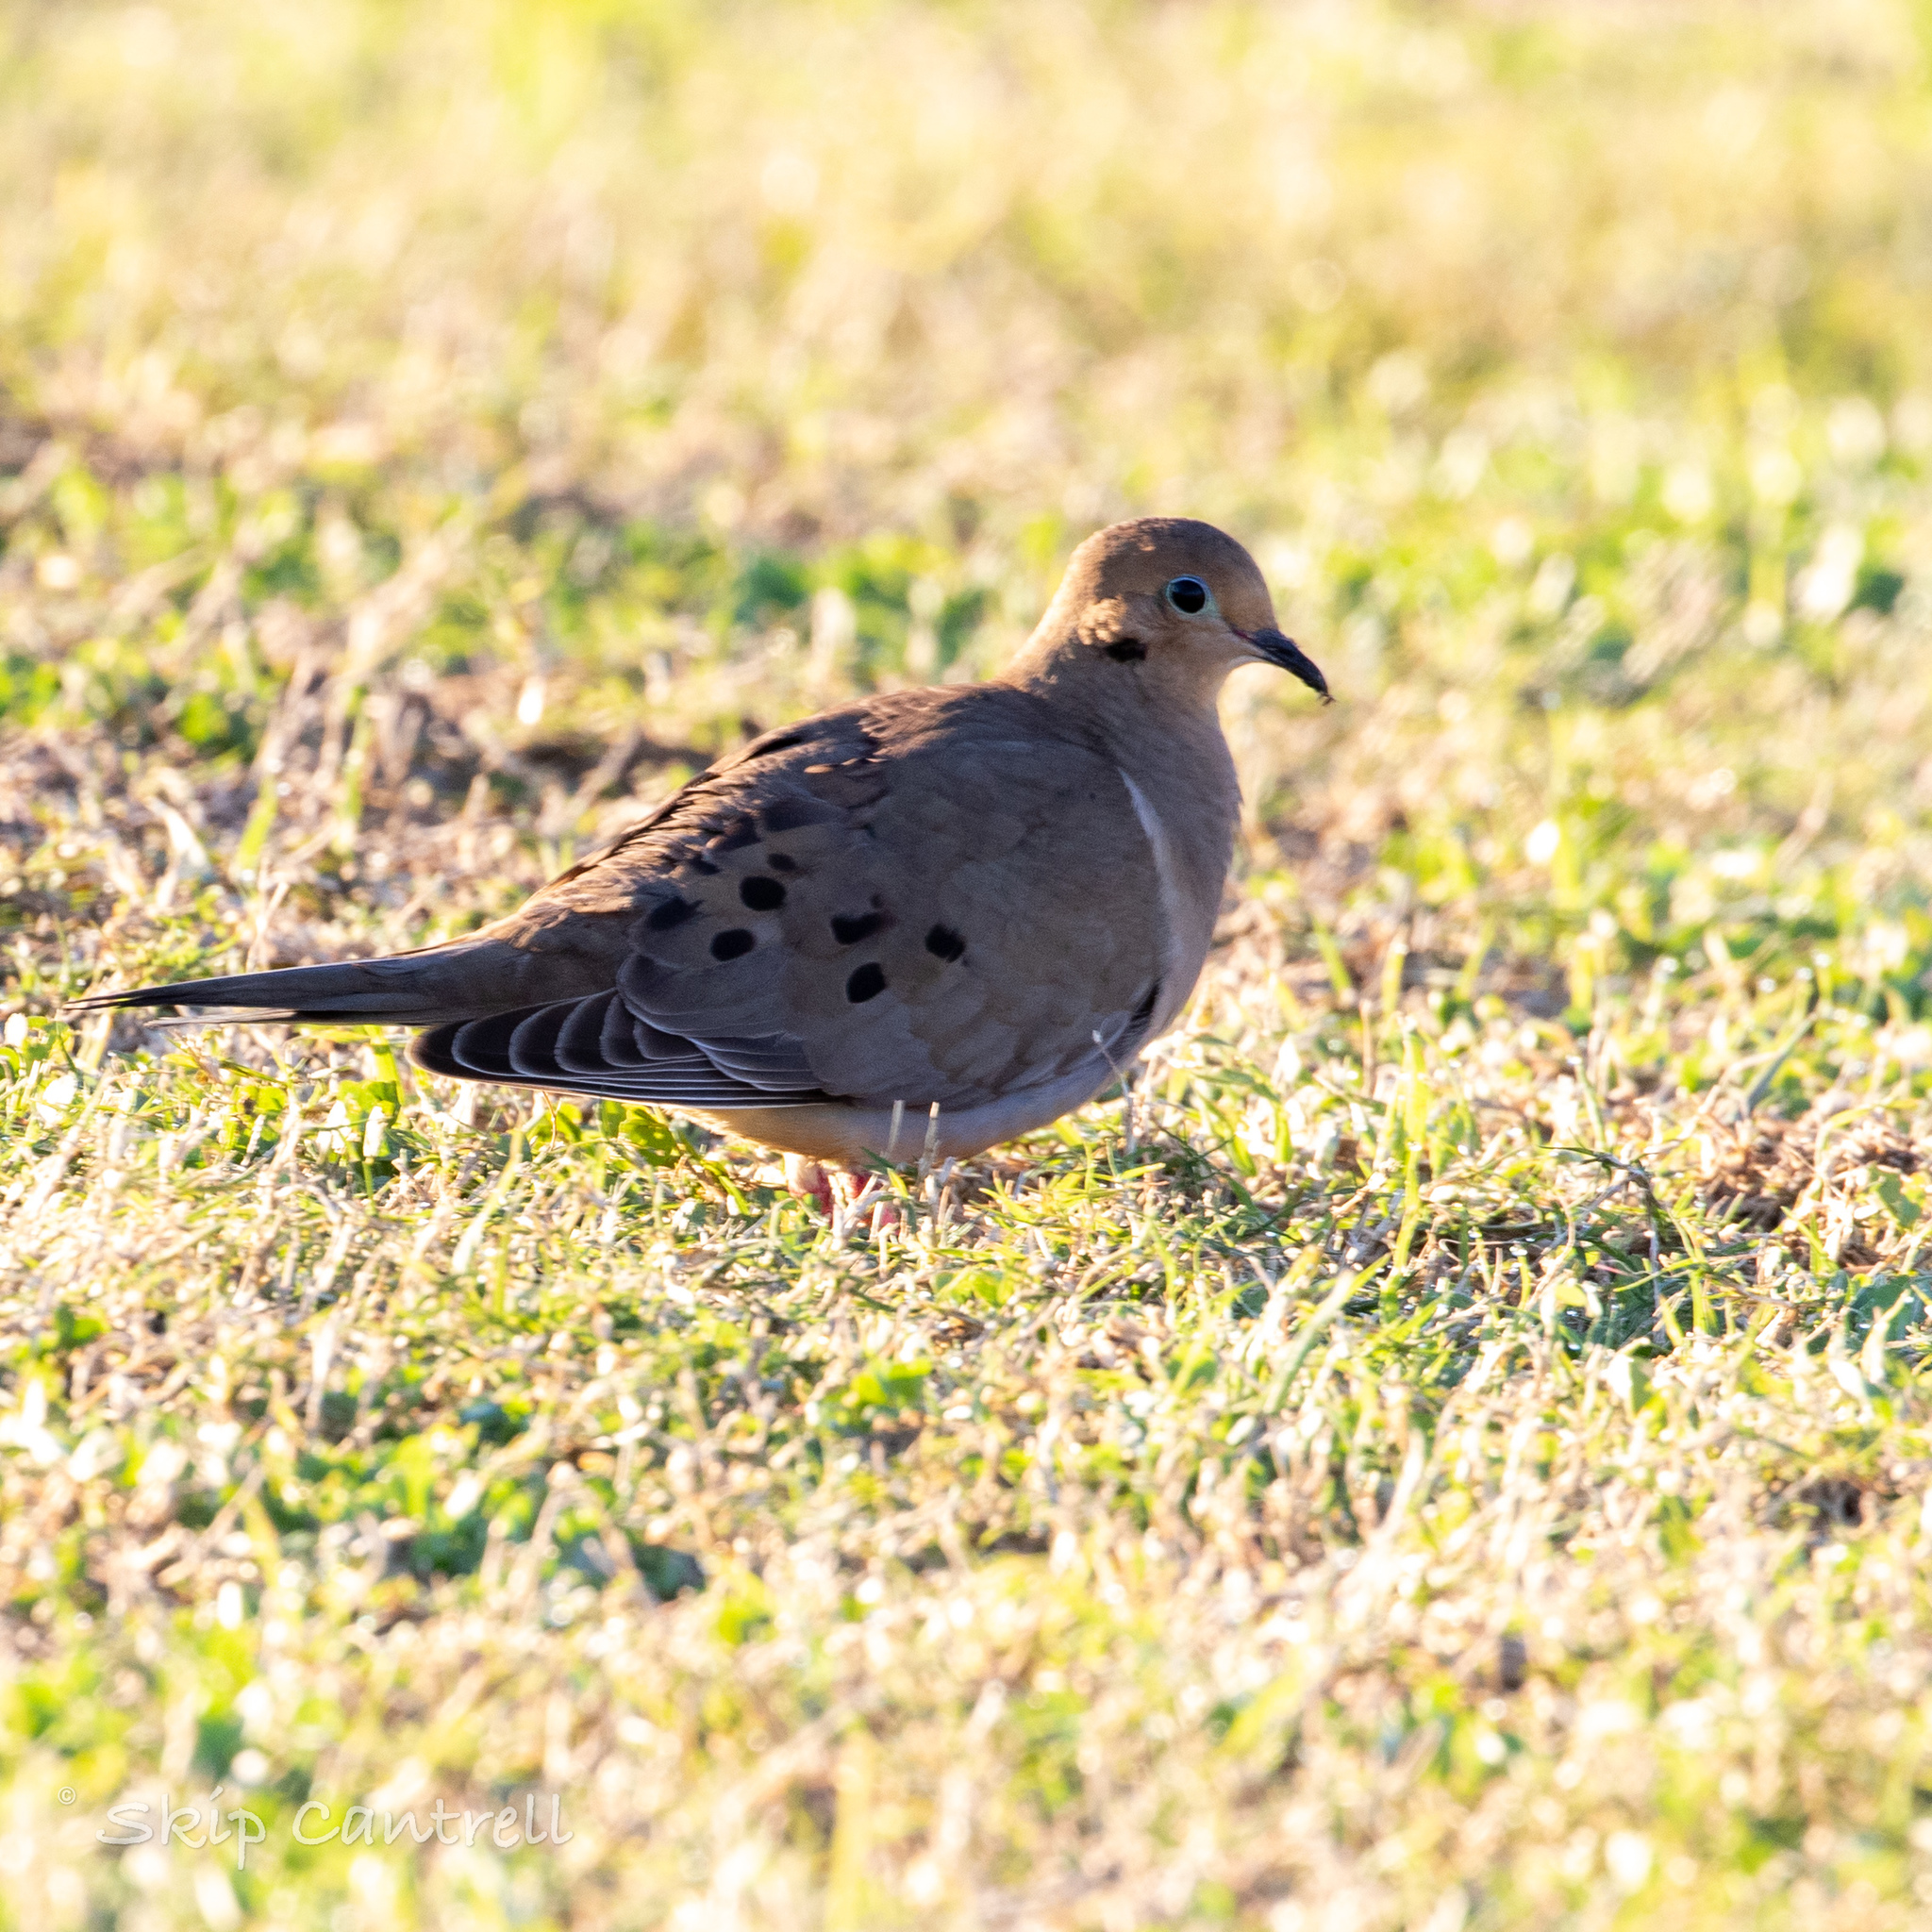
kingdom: Animalia
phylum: Chordata
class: Aves
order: Columbiformes
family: Columbidae
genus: Zenaida
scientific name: Zenaida macroura
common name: Mourning dove
